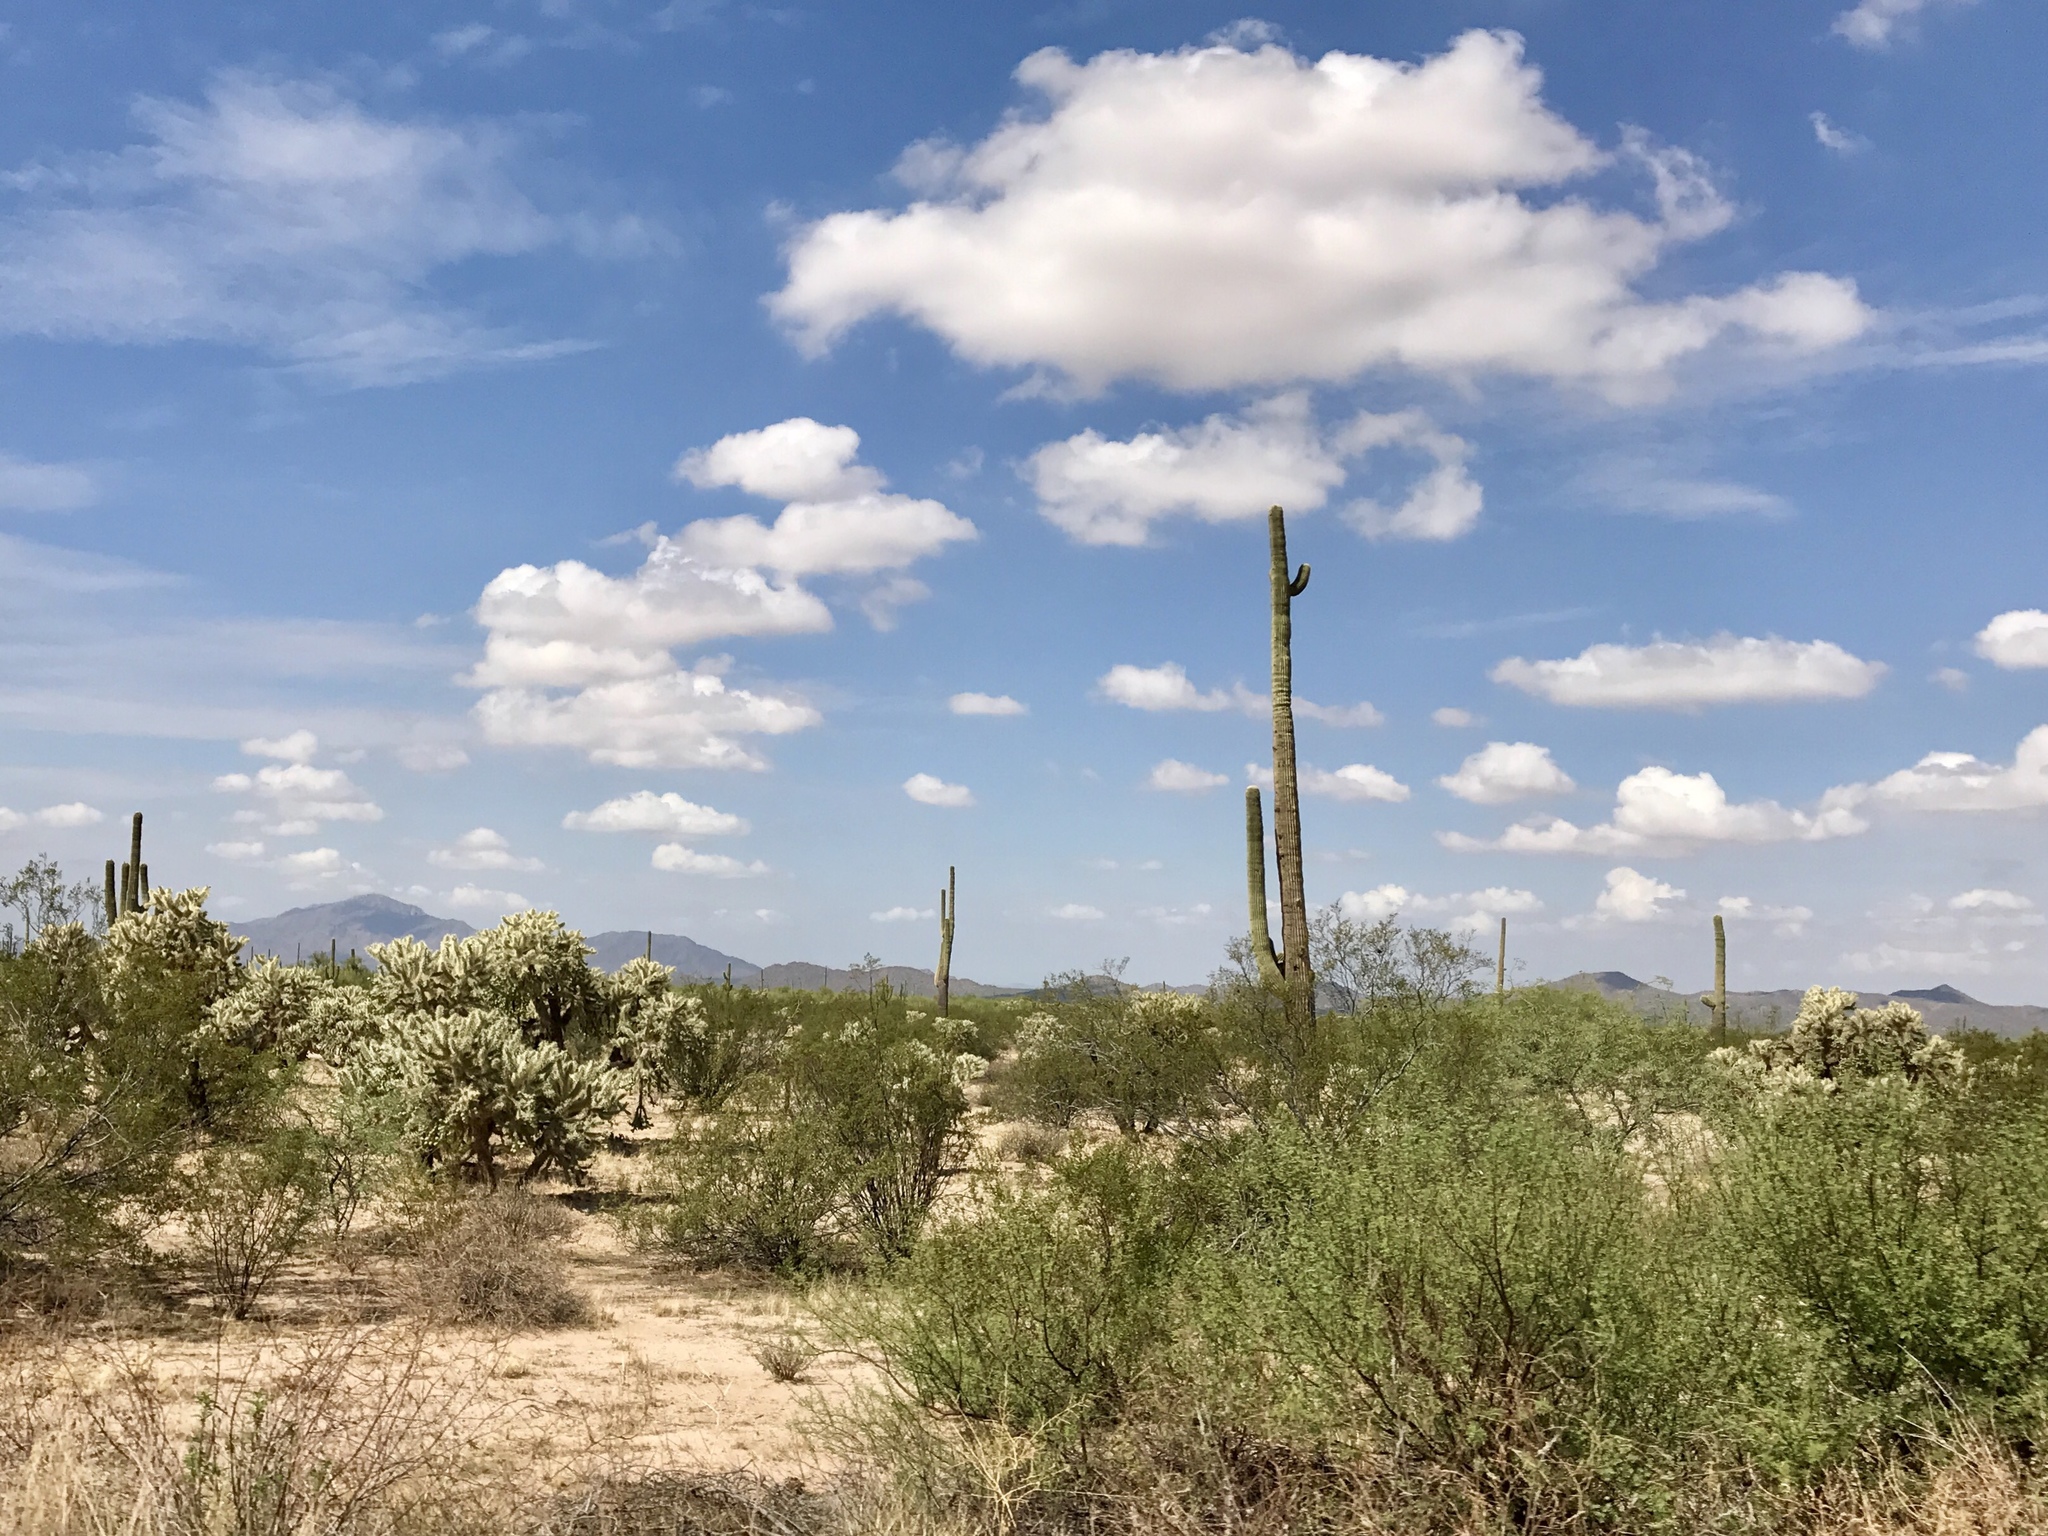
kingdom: Plantae
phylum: Tracheophyta
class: Magnoliopsida
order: Caryophyllales
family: Cactaceae
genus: Carnegiea
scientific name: Carnegiea gigantea
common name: Saguaro
